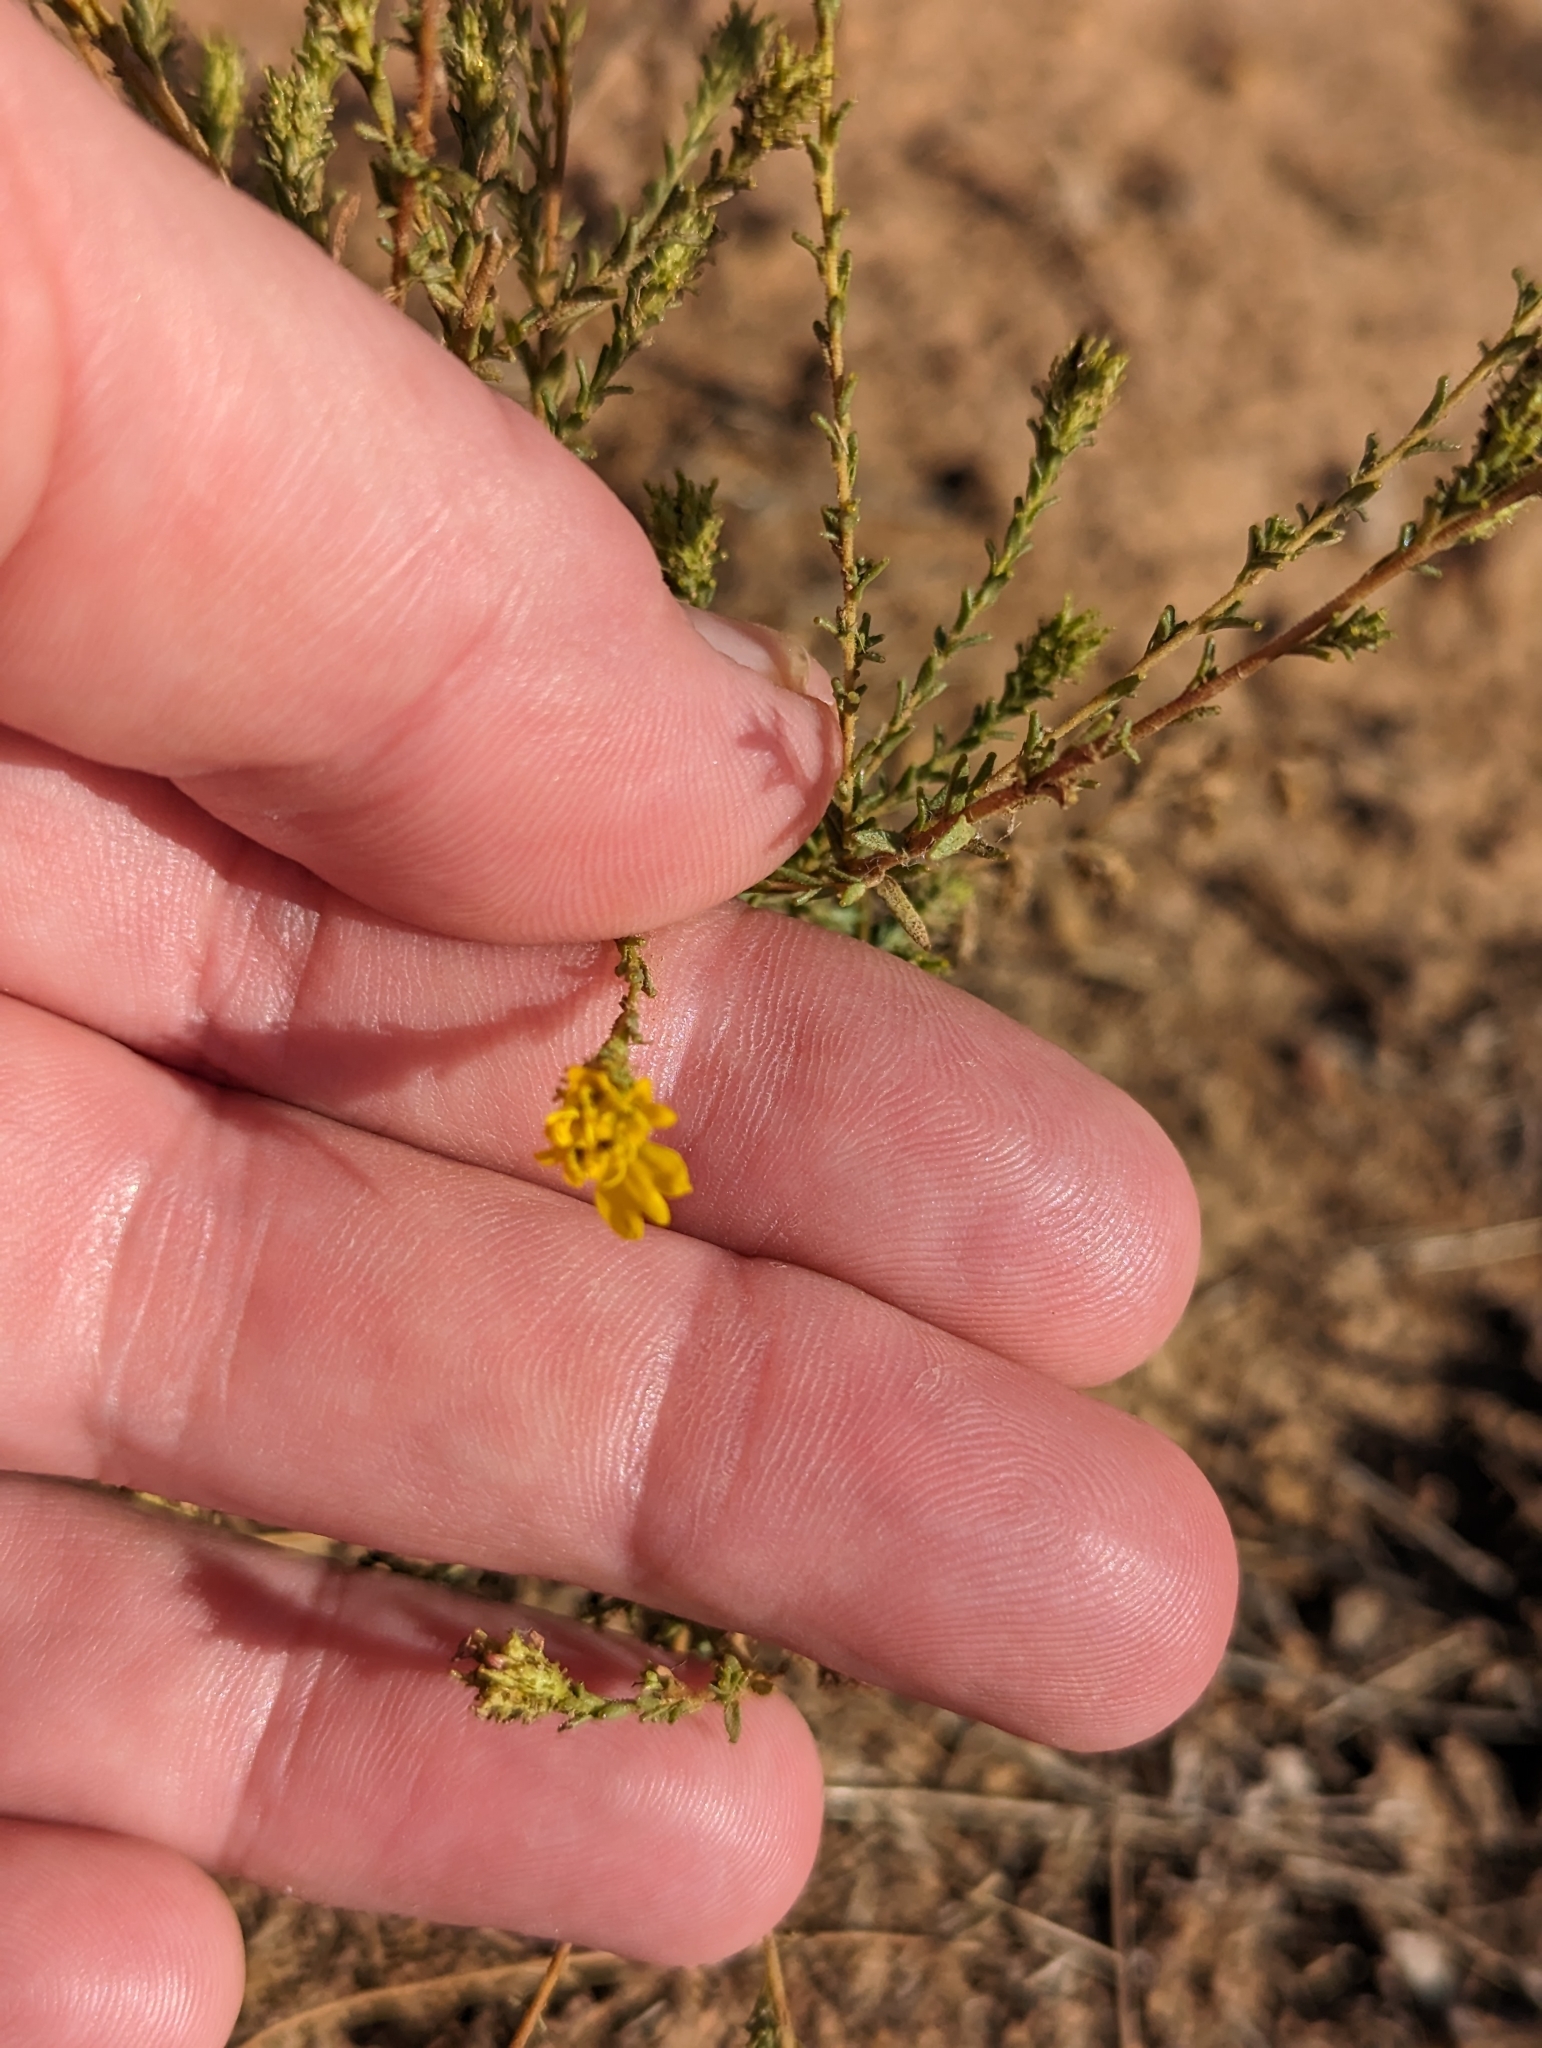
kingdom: Plantae
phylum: Tracheophyta
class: Magnoliopsida
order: Asterales
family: Asteraceae
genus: Holocarpha
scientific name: Holocarpha virgata
